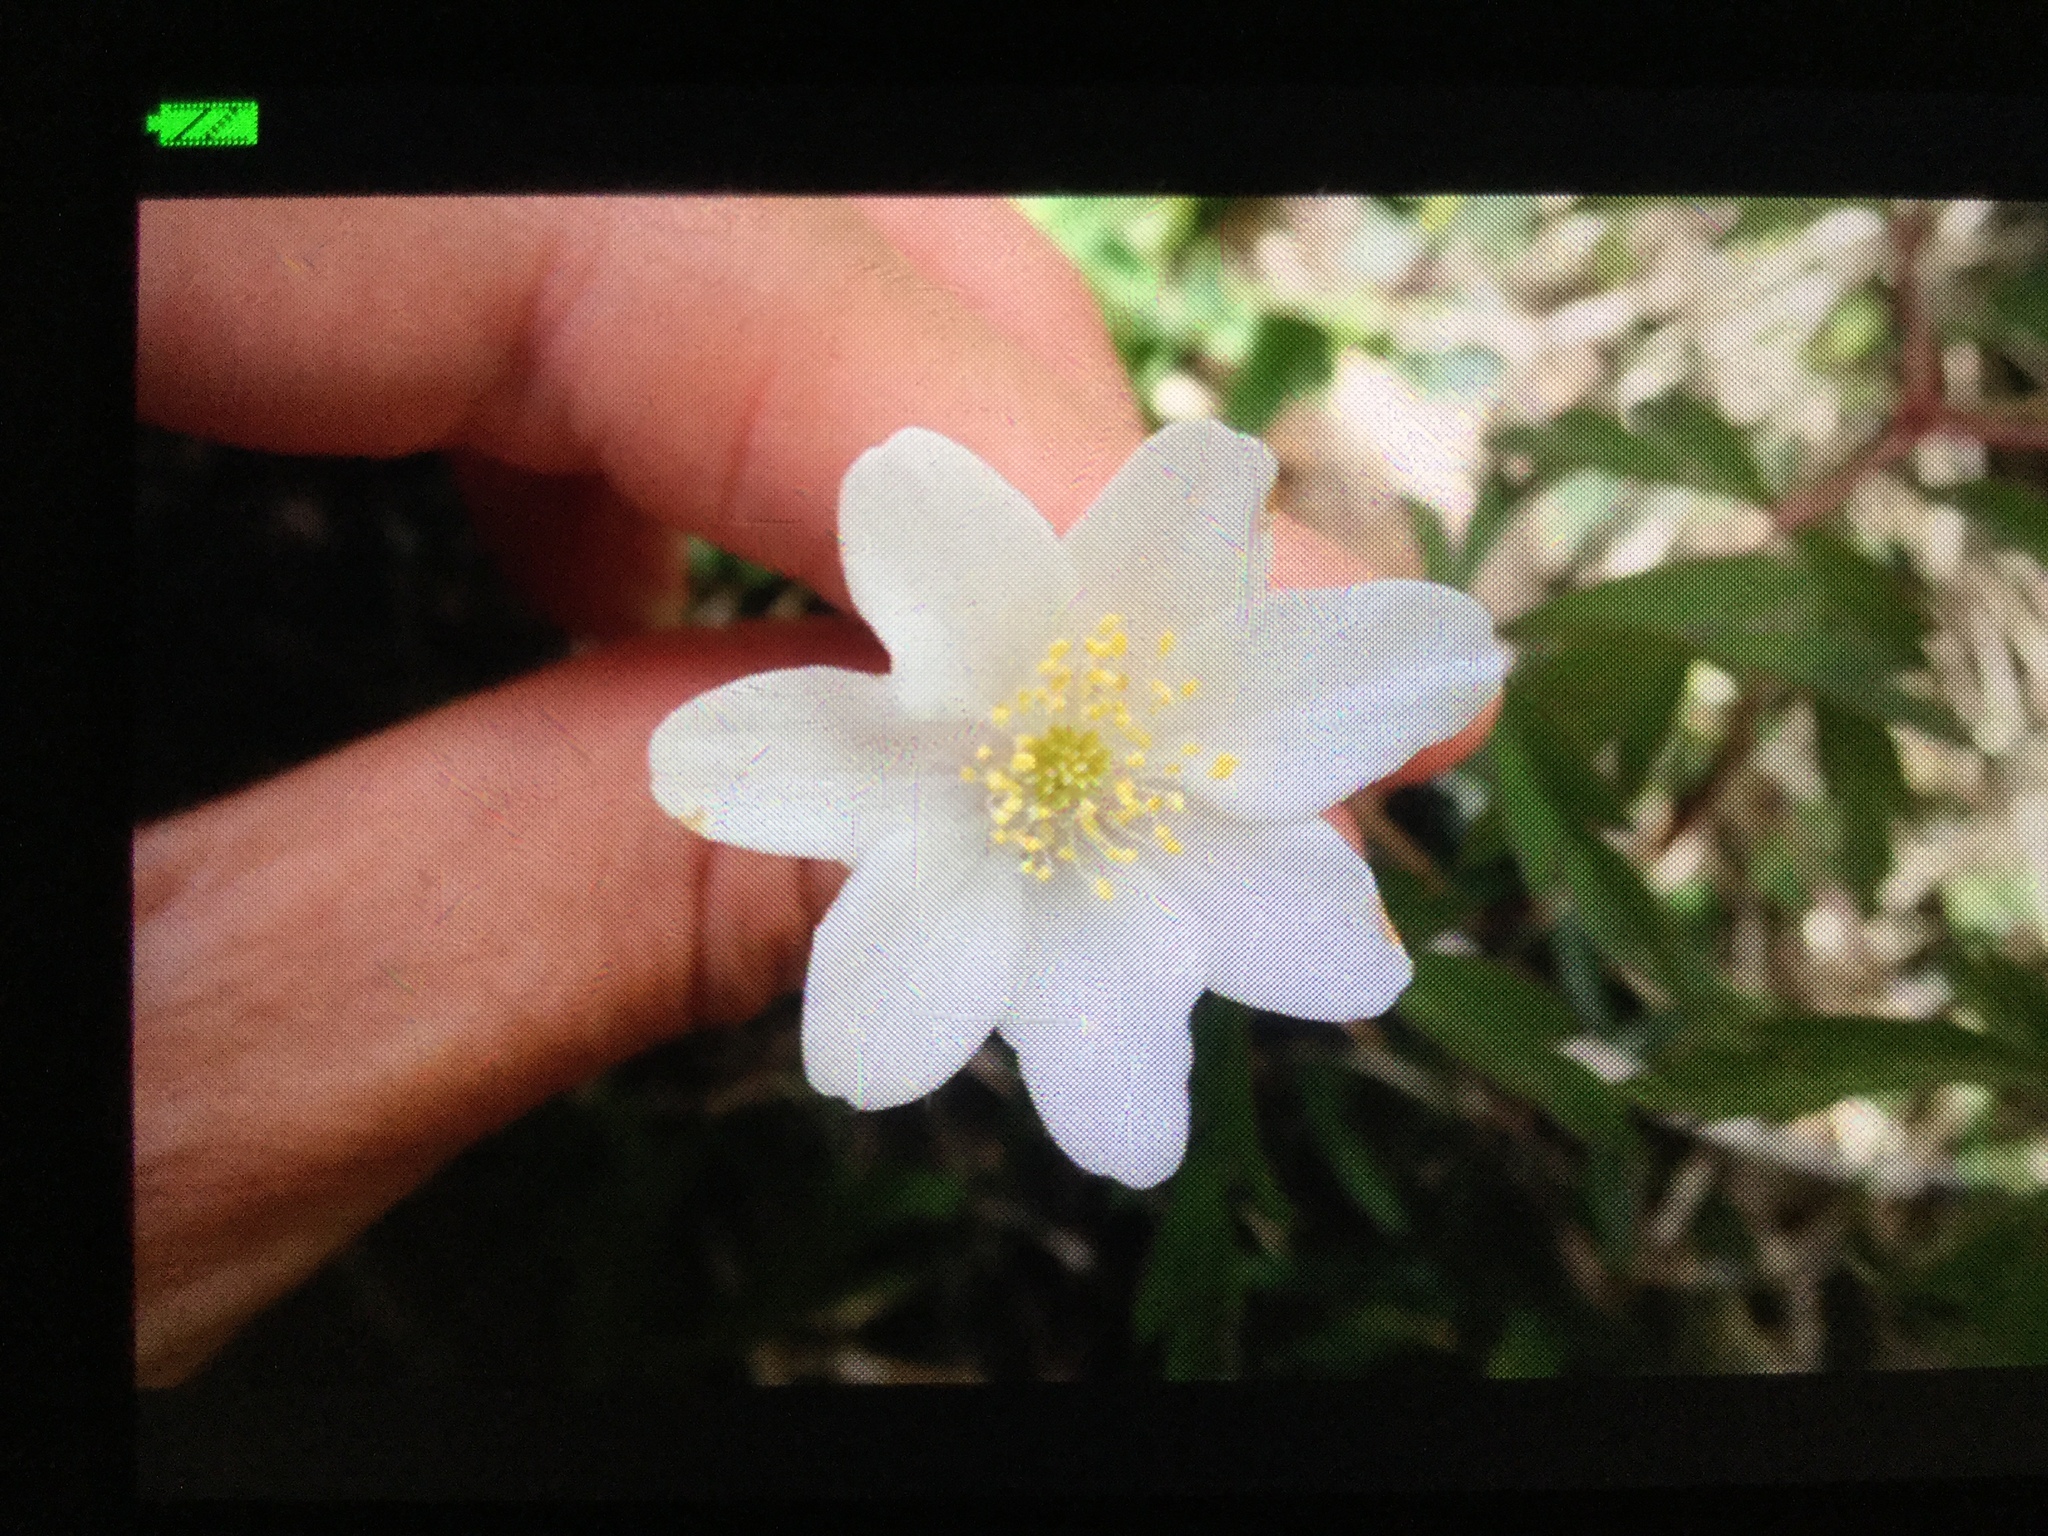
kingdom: Plantae
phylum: Tracheophyta
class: Magnoliopsida
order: Ranunculales
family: Ranunculaceae
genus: Anemone
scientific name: Anemone nemorosa
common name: Wood anemone
